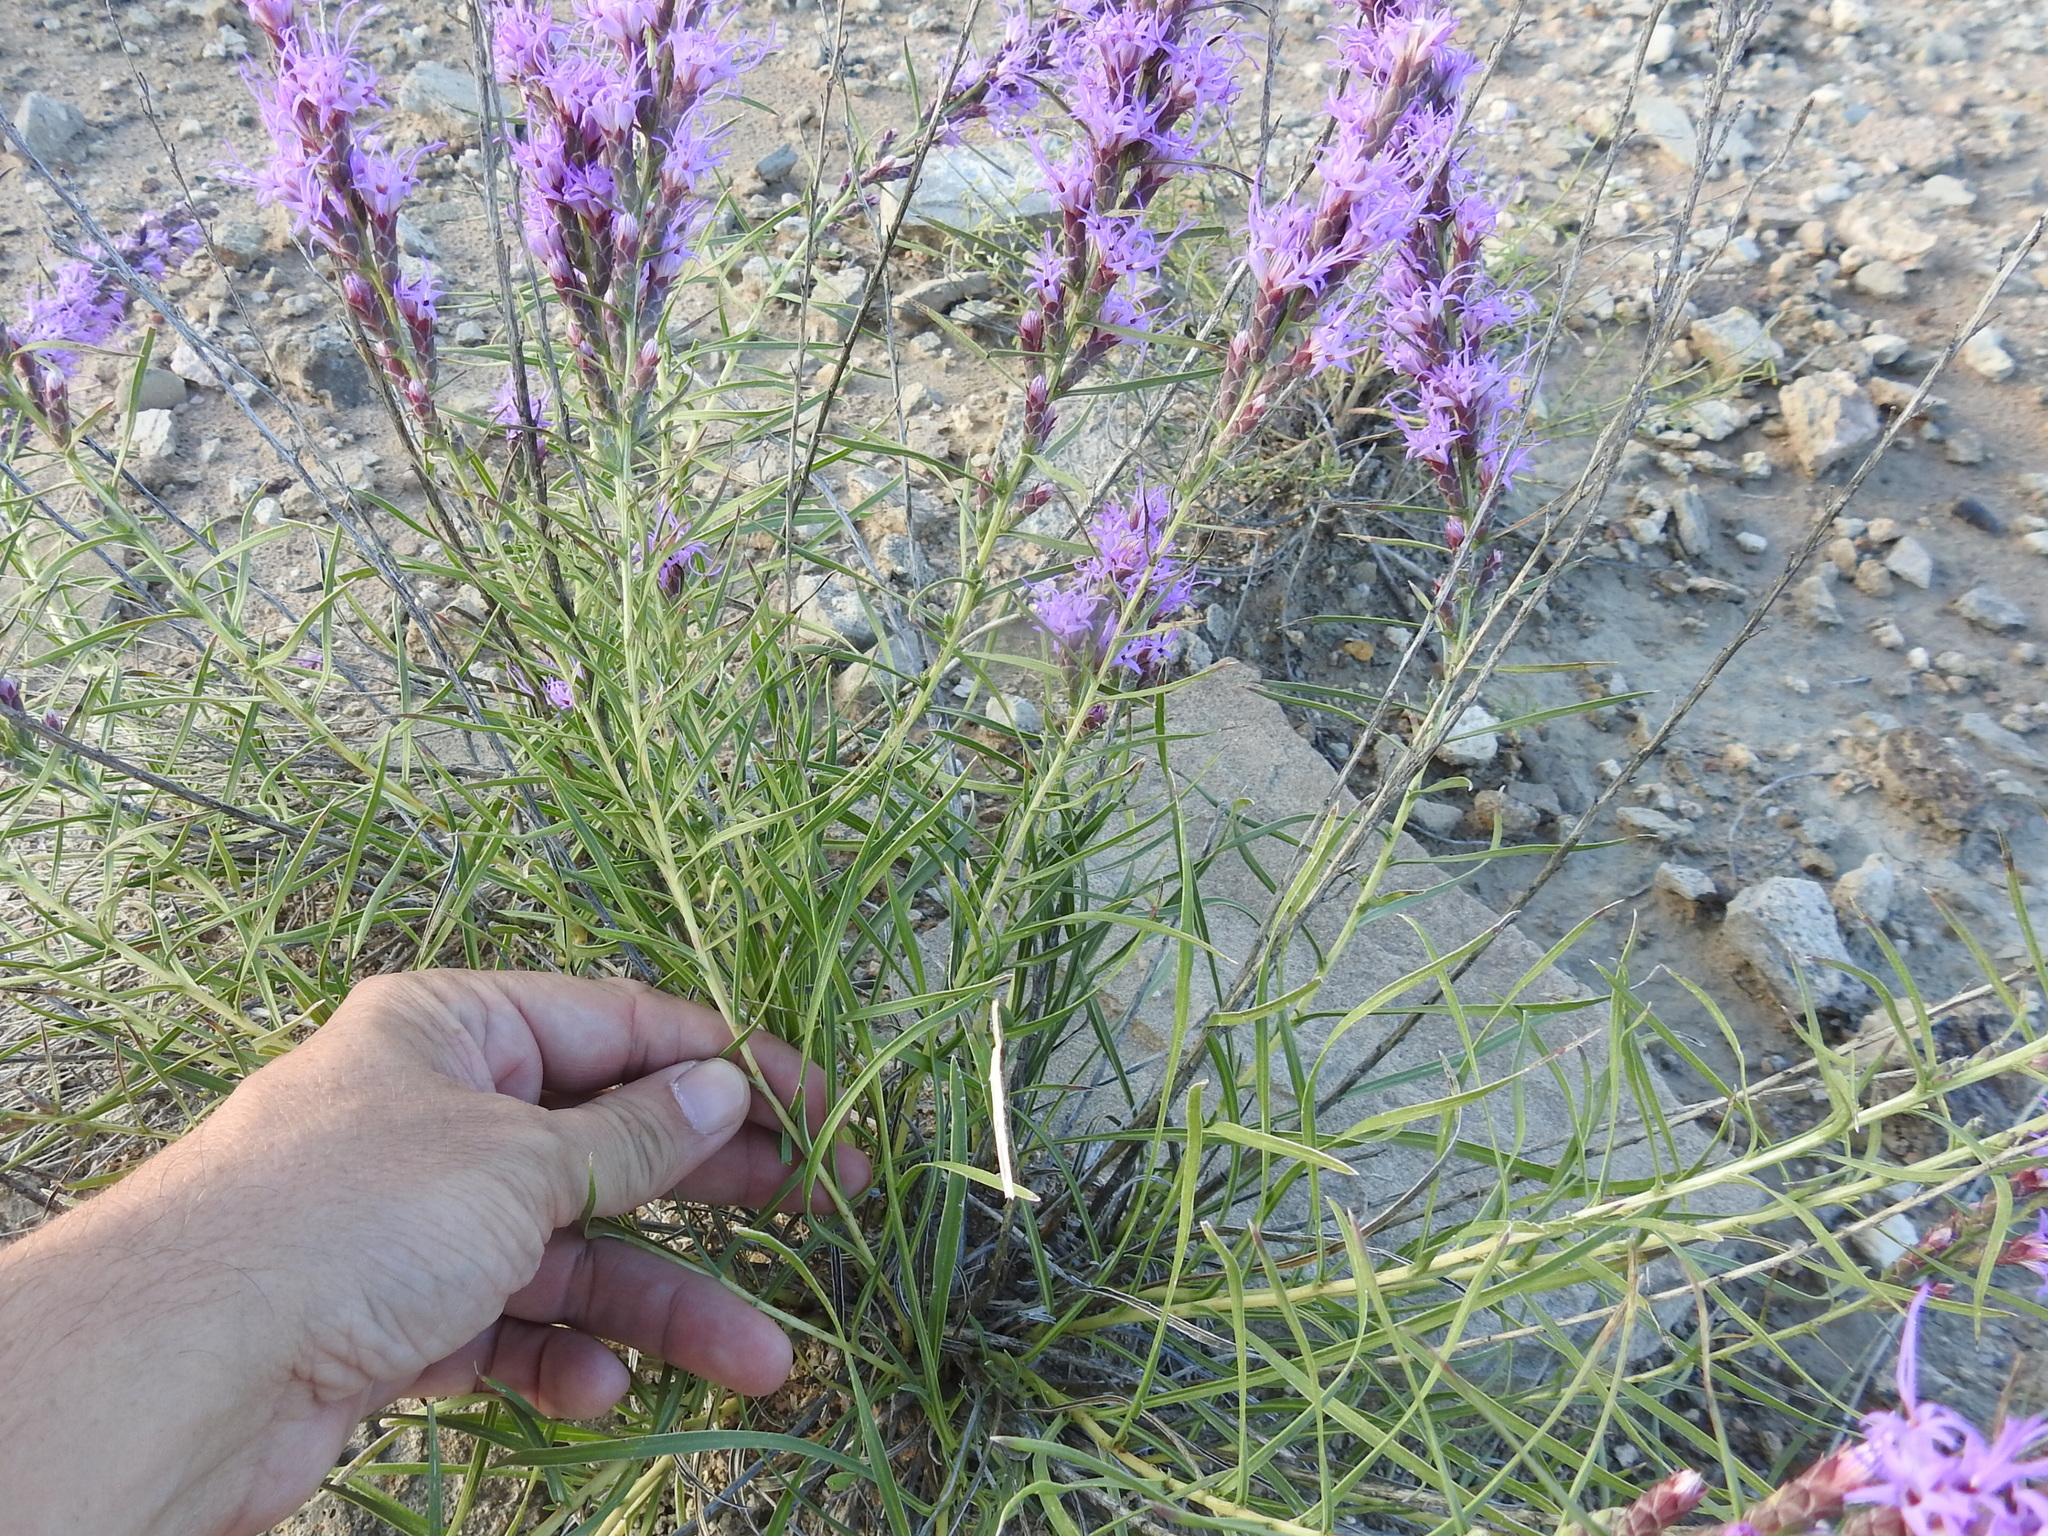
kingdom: Plantae
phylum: Tracheophyta
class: Magnoliopsida
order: Asterales
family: Asteraceae
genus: Liatris
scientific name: Liatris punctata
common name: Dotted gayfeather
